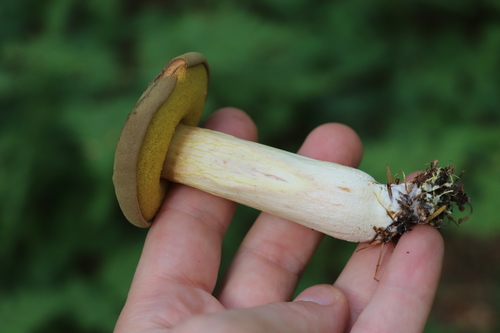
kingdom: Fungi
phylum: Basidiomycota
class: Agaricomycetes
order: Boletales
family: Boletaceae
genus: Xerocomus
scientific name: Xerocomus subtomentosus
